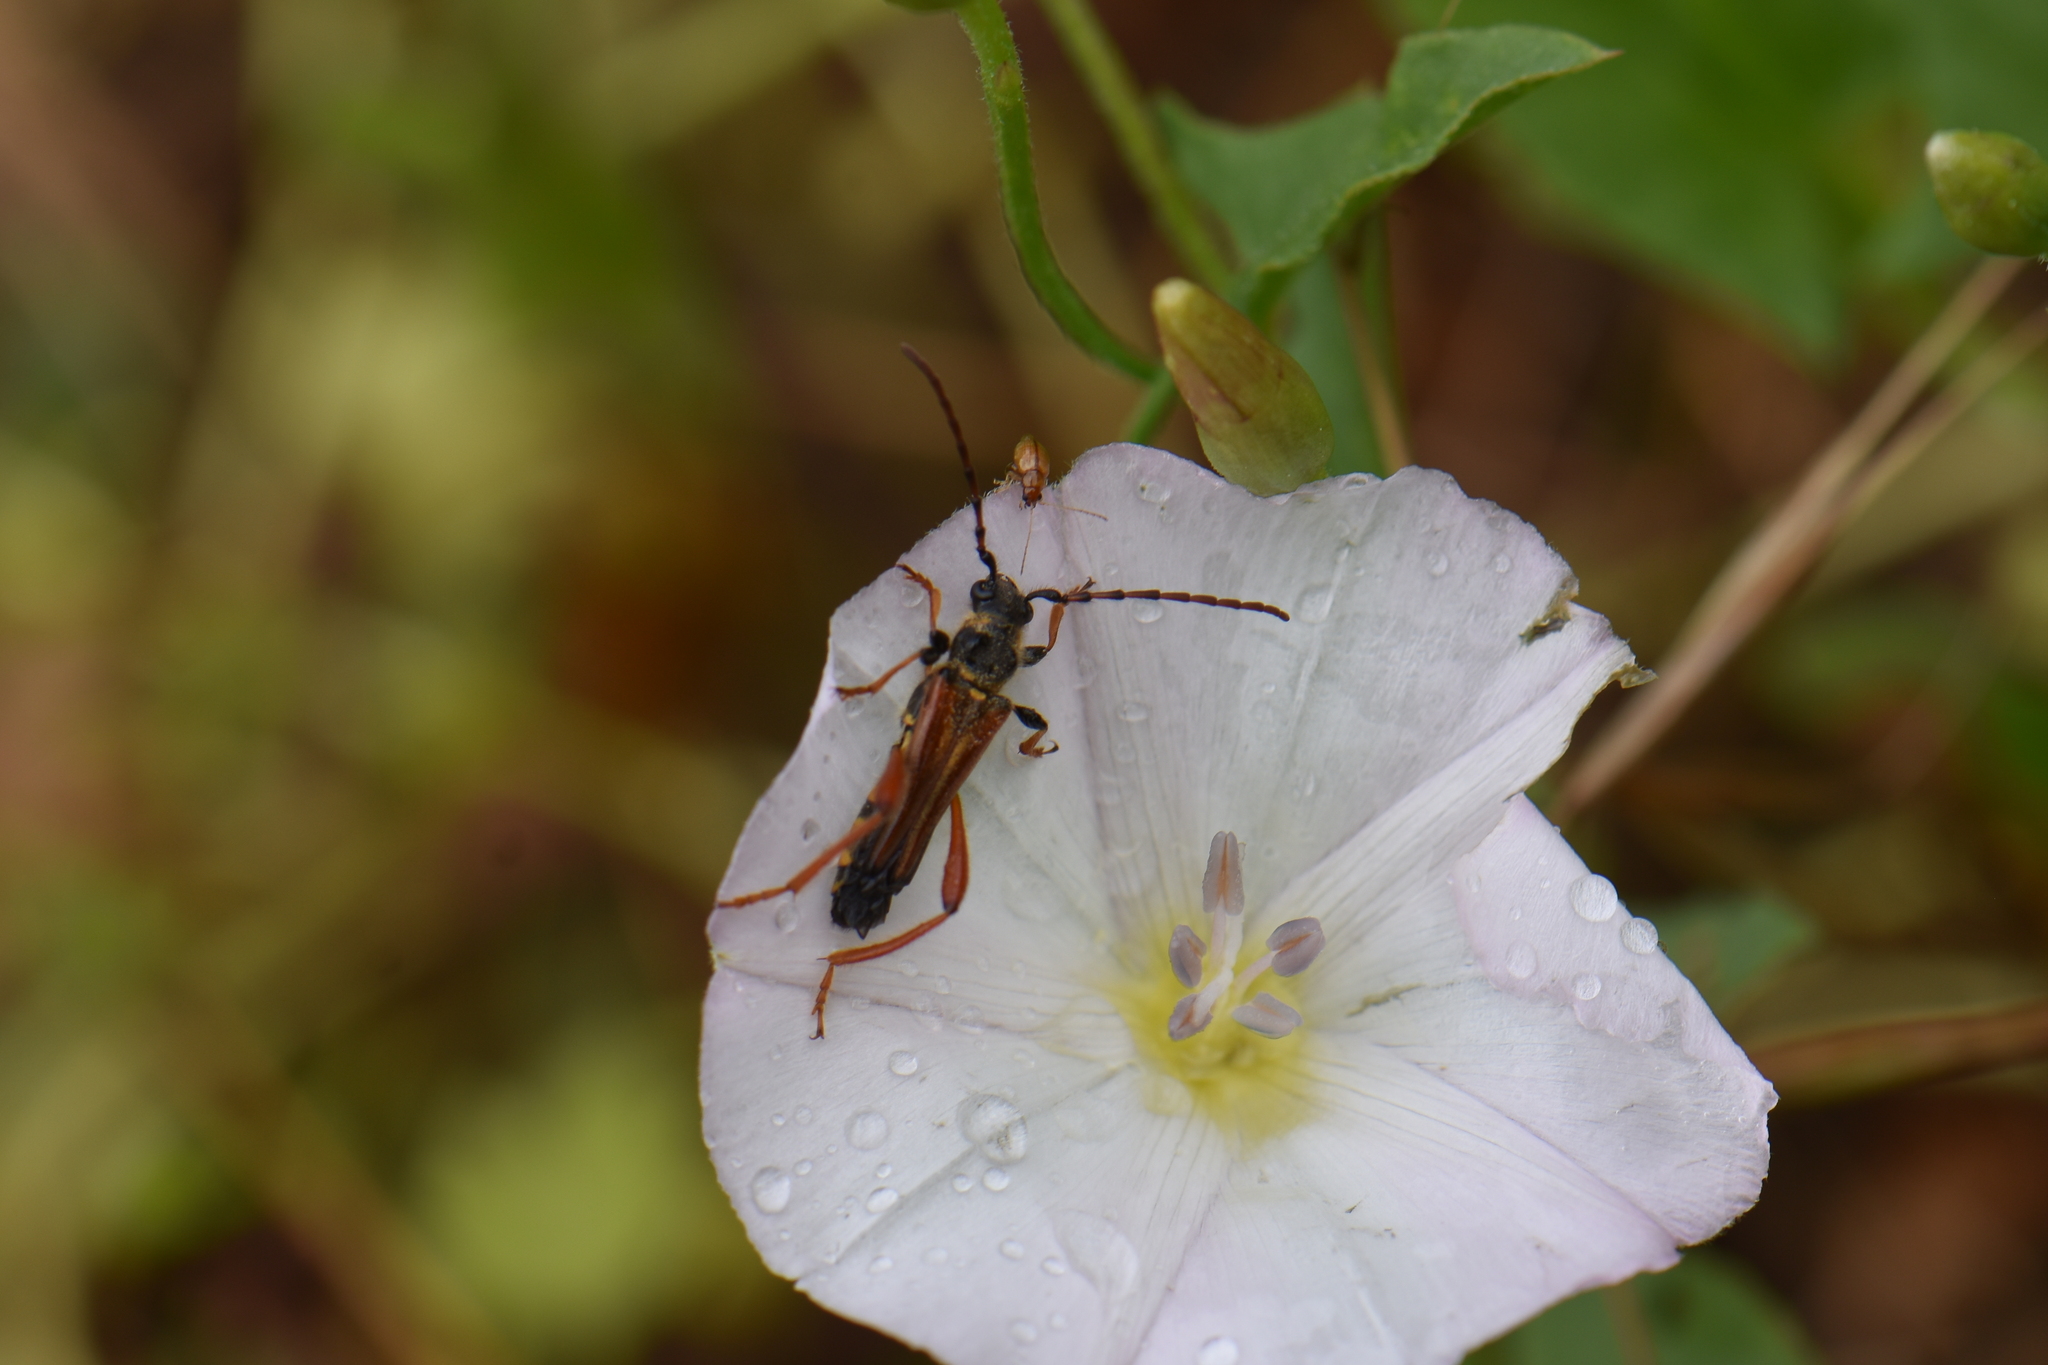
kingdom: Animalia
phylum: Arthropoda
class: Insecta
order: Coleoptera
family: Cerambycidae
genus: Stenopterus
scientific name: Stenopterus rufus
